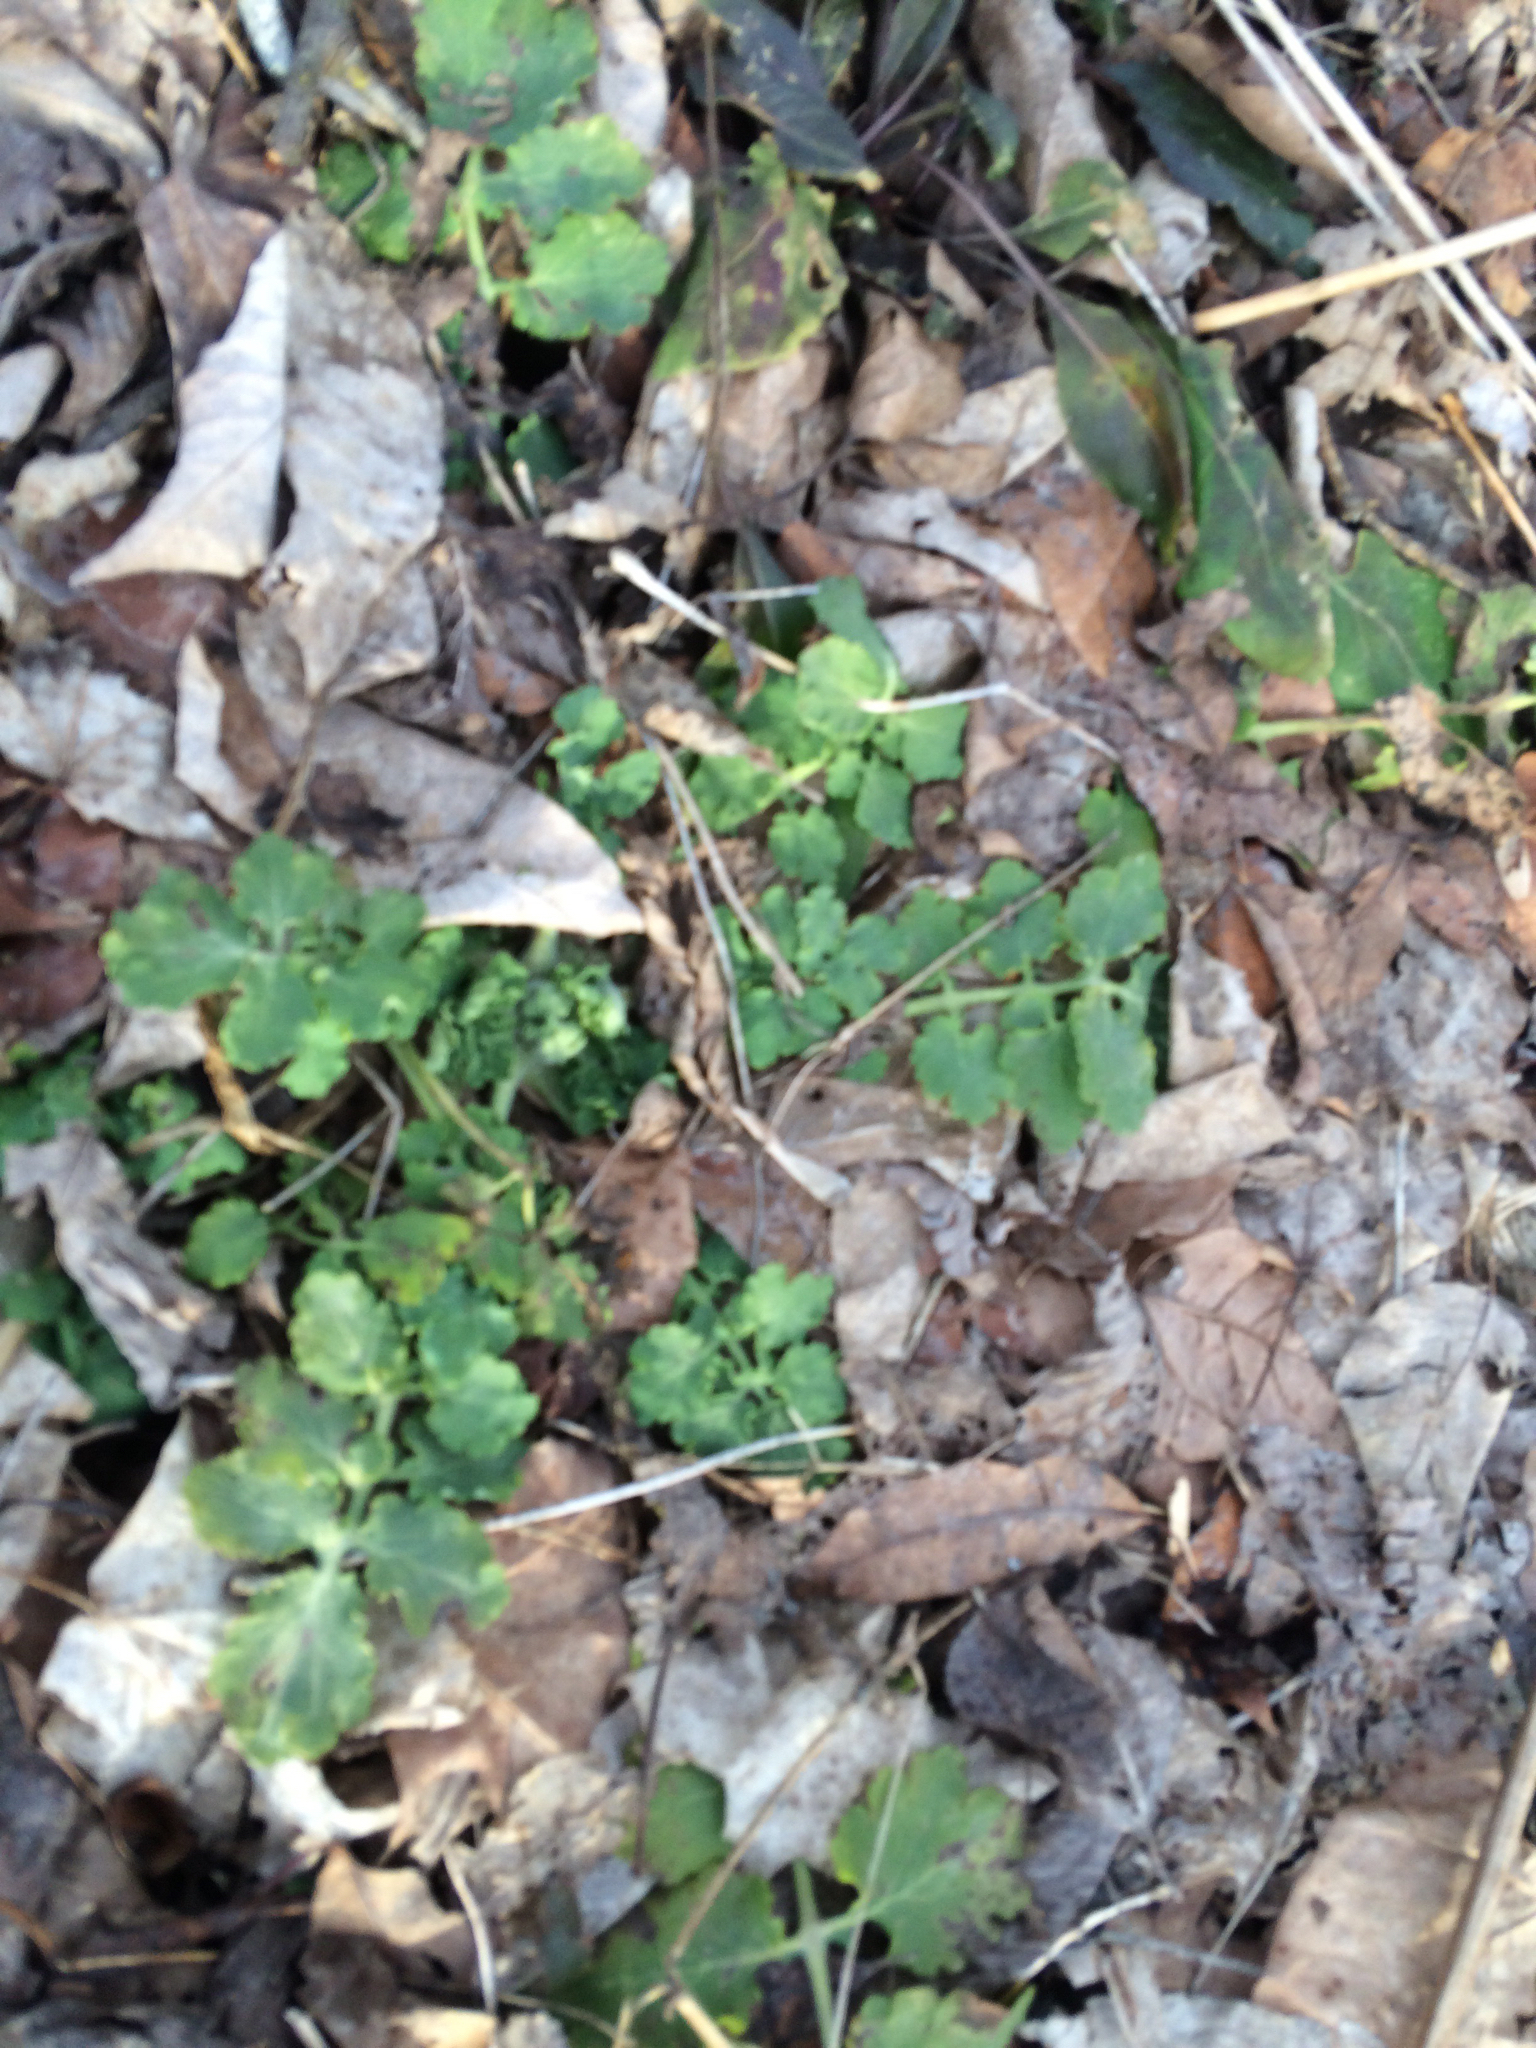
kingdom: Plantae
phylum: Tracheophyta
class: Magnoliopsida
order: Ranunculales
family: Papaveraceae
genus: Chelidonium
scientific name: Chelidonium majus
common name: Greater celandine
